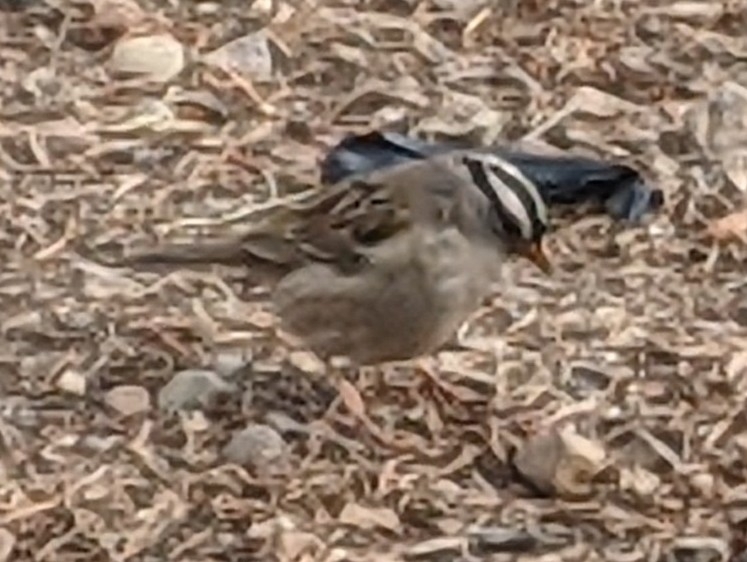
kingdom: Animalia
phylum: Chordata
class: Aves
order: Passeriformes
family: Passerellidae
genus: Zonotrichia
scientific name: Zonotrichia leucophrys
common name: White-crowned sparrow
